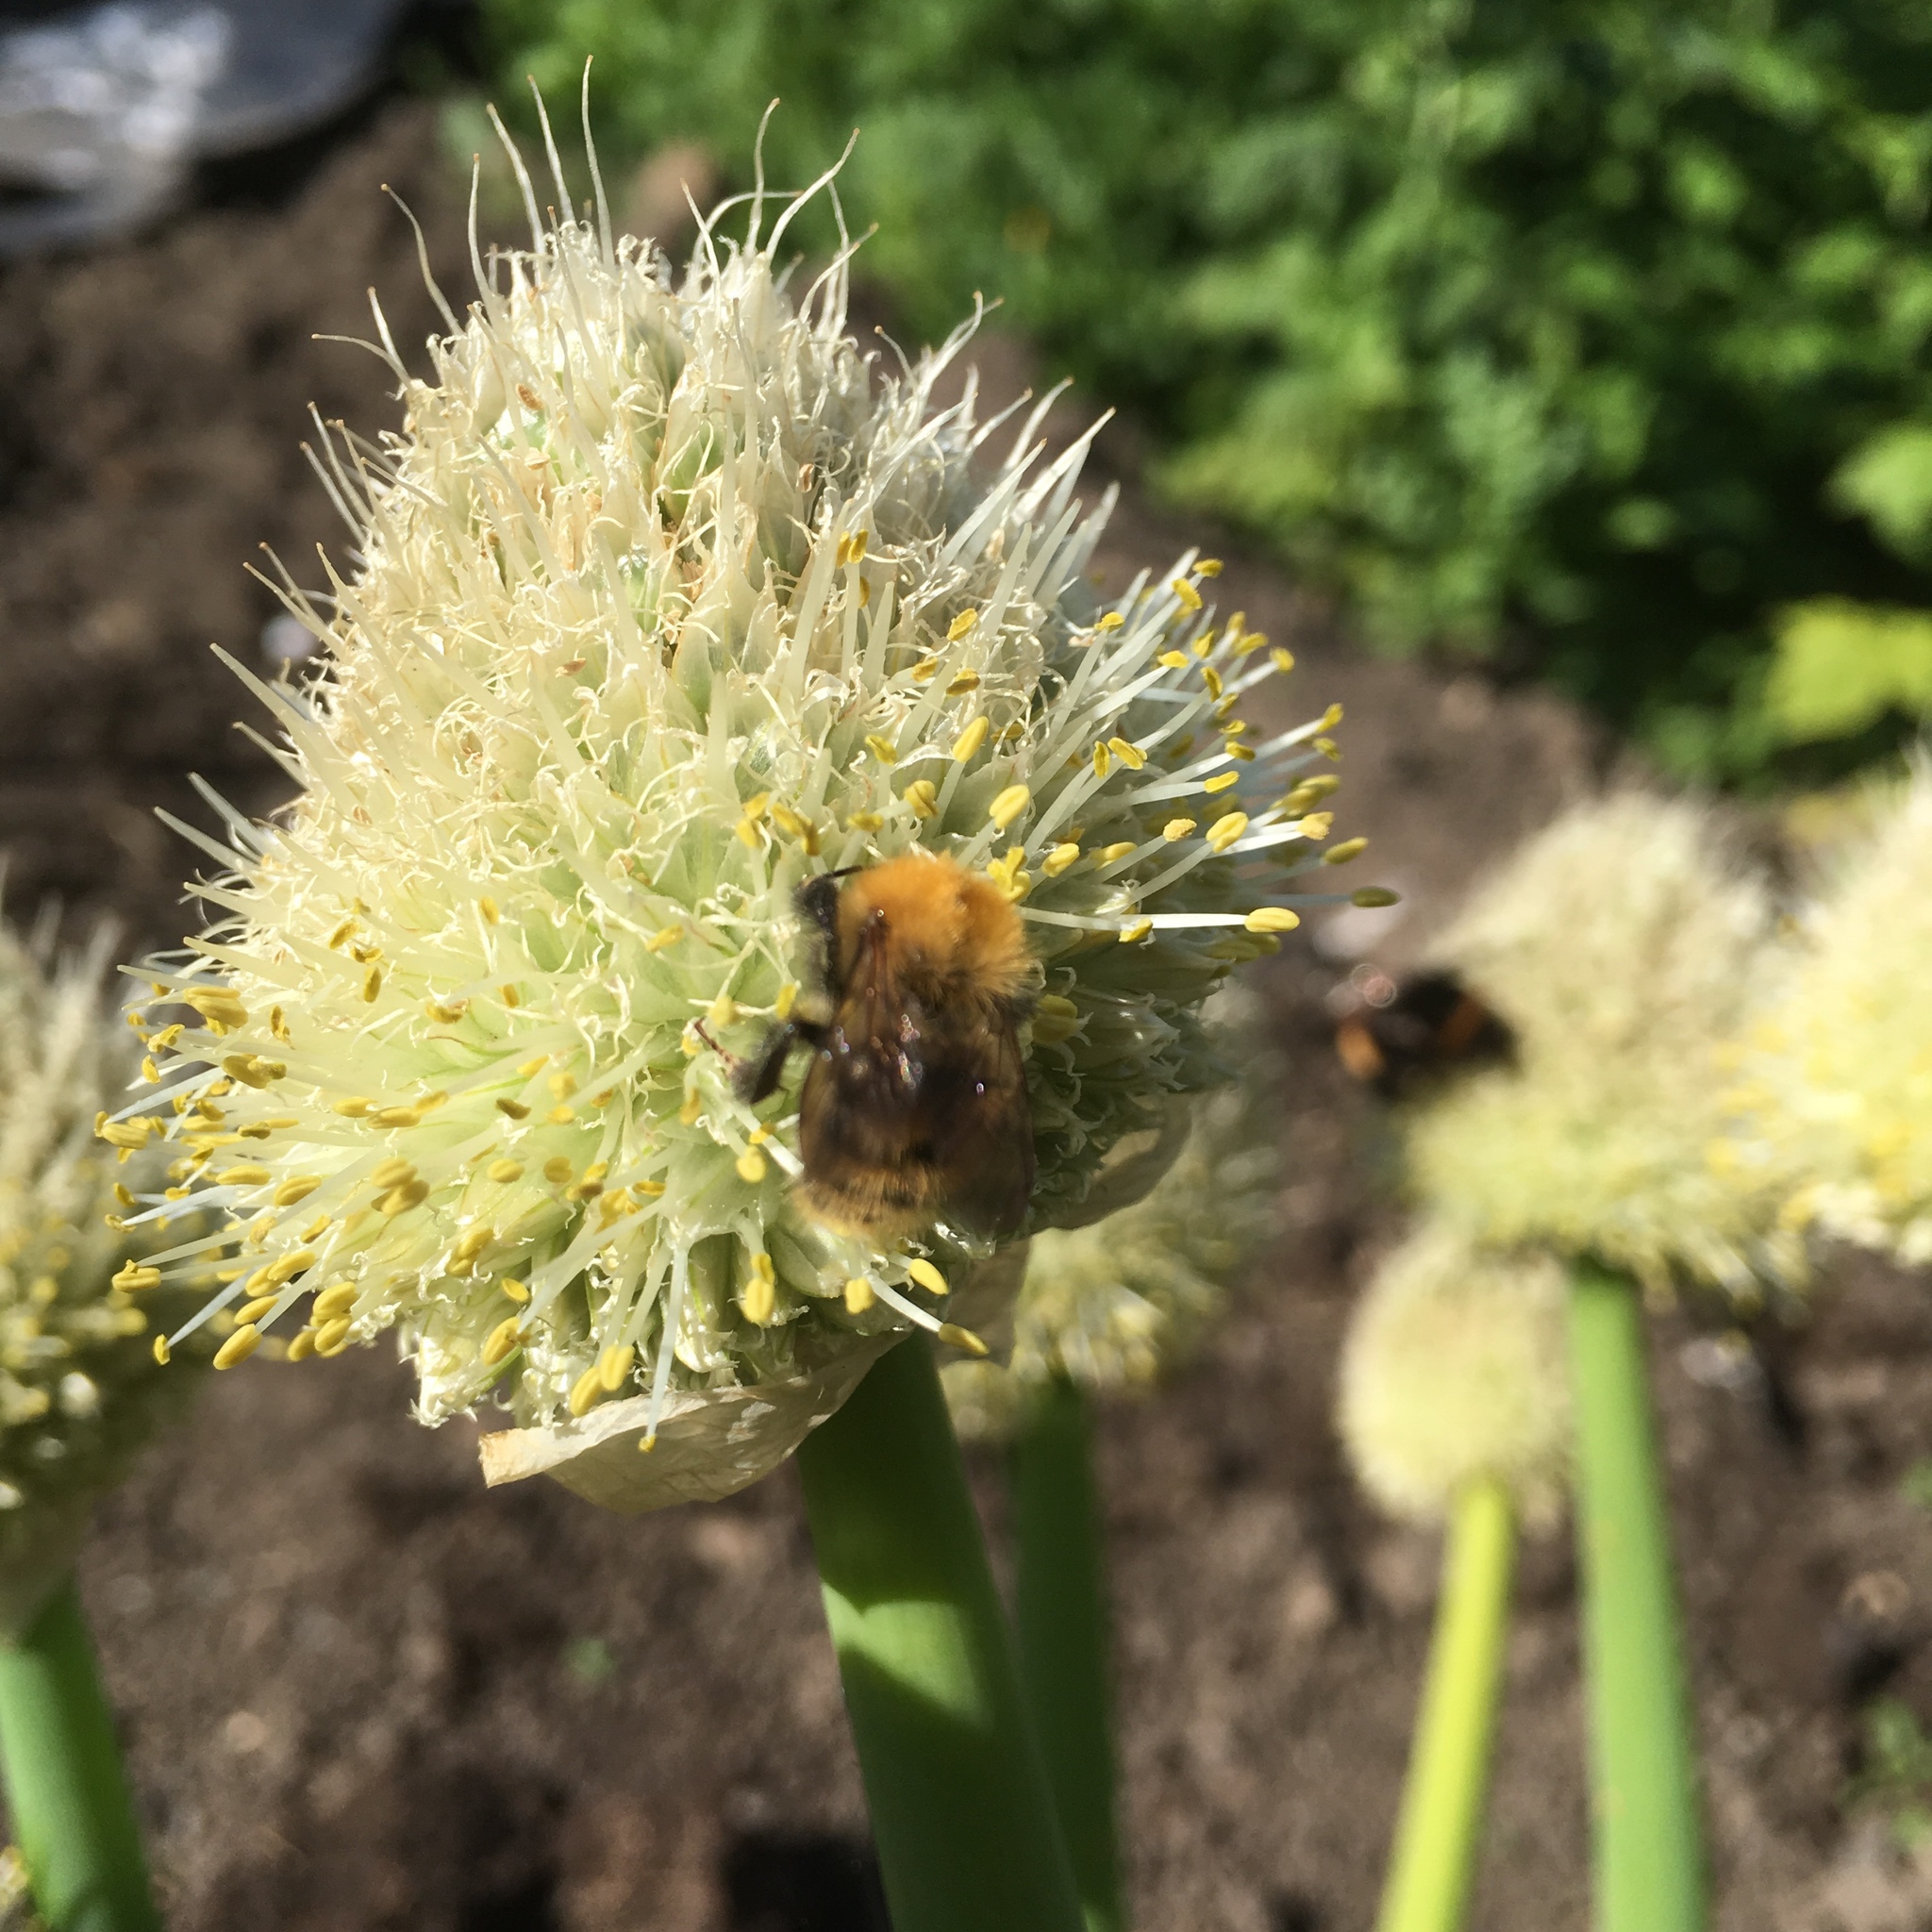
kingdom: Animalia
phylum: Arthropoda
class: Insecta
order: Hymenoptera
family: Apidae
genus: Bombus
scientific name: Bombus pascuorum
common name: Common carder bee
